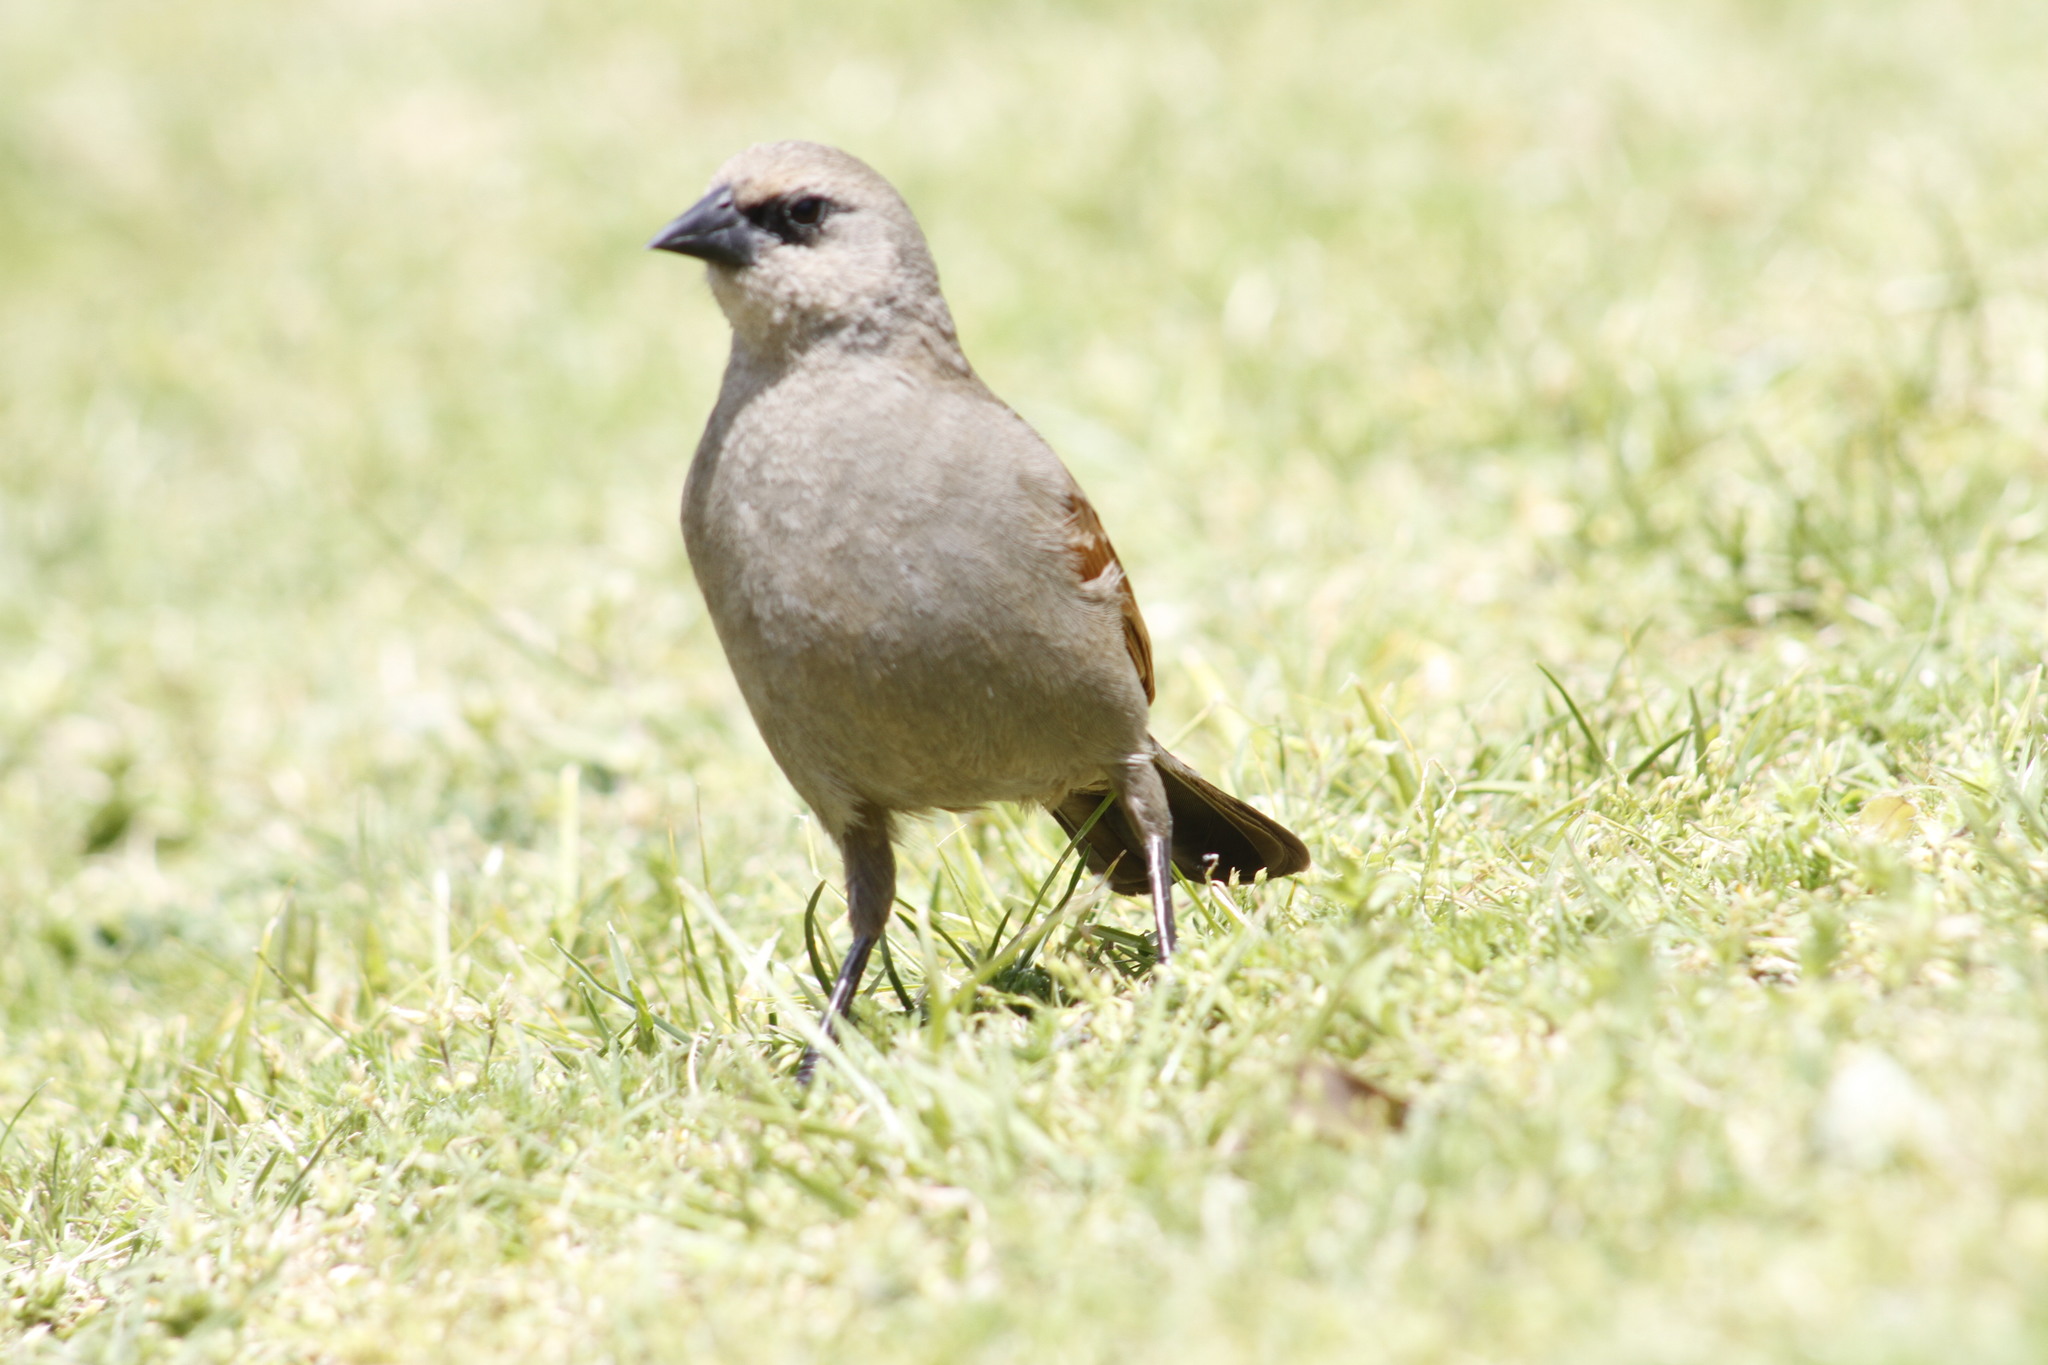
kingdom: Animalia
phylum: Chordata
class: Aves
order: Passeriformes
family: Icteridae
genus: Agelaioides
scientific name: Agelaioides badius
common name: Baywing
